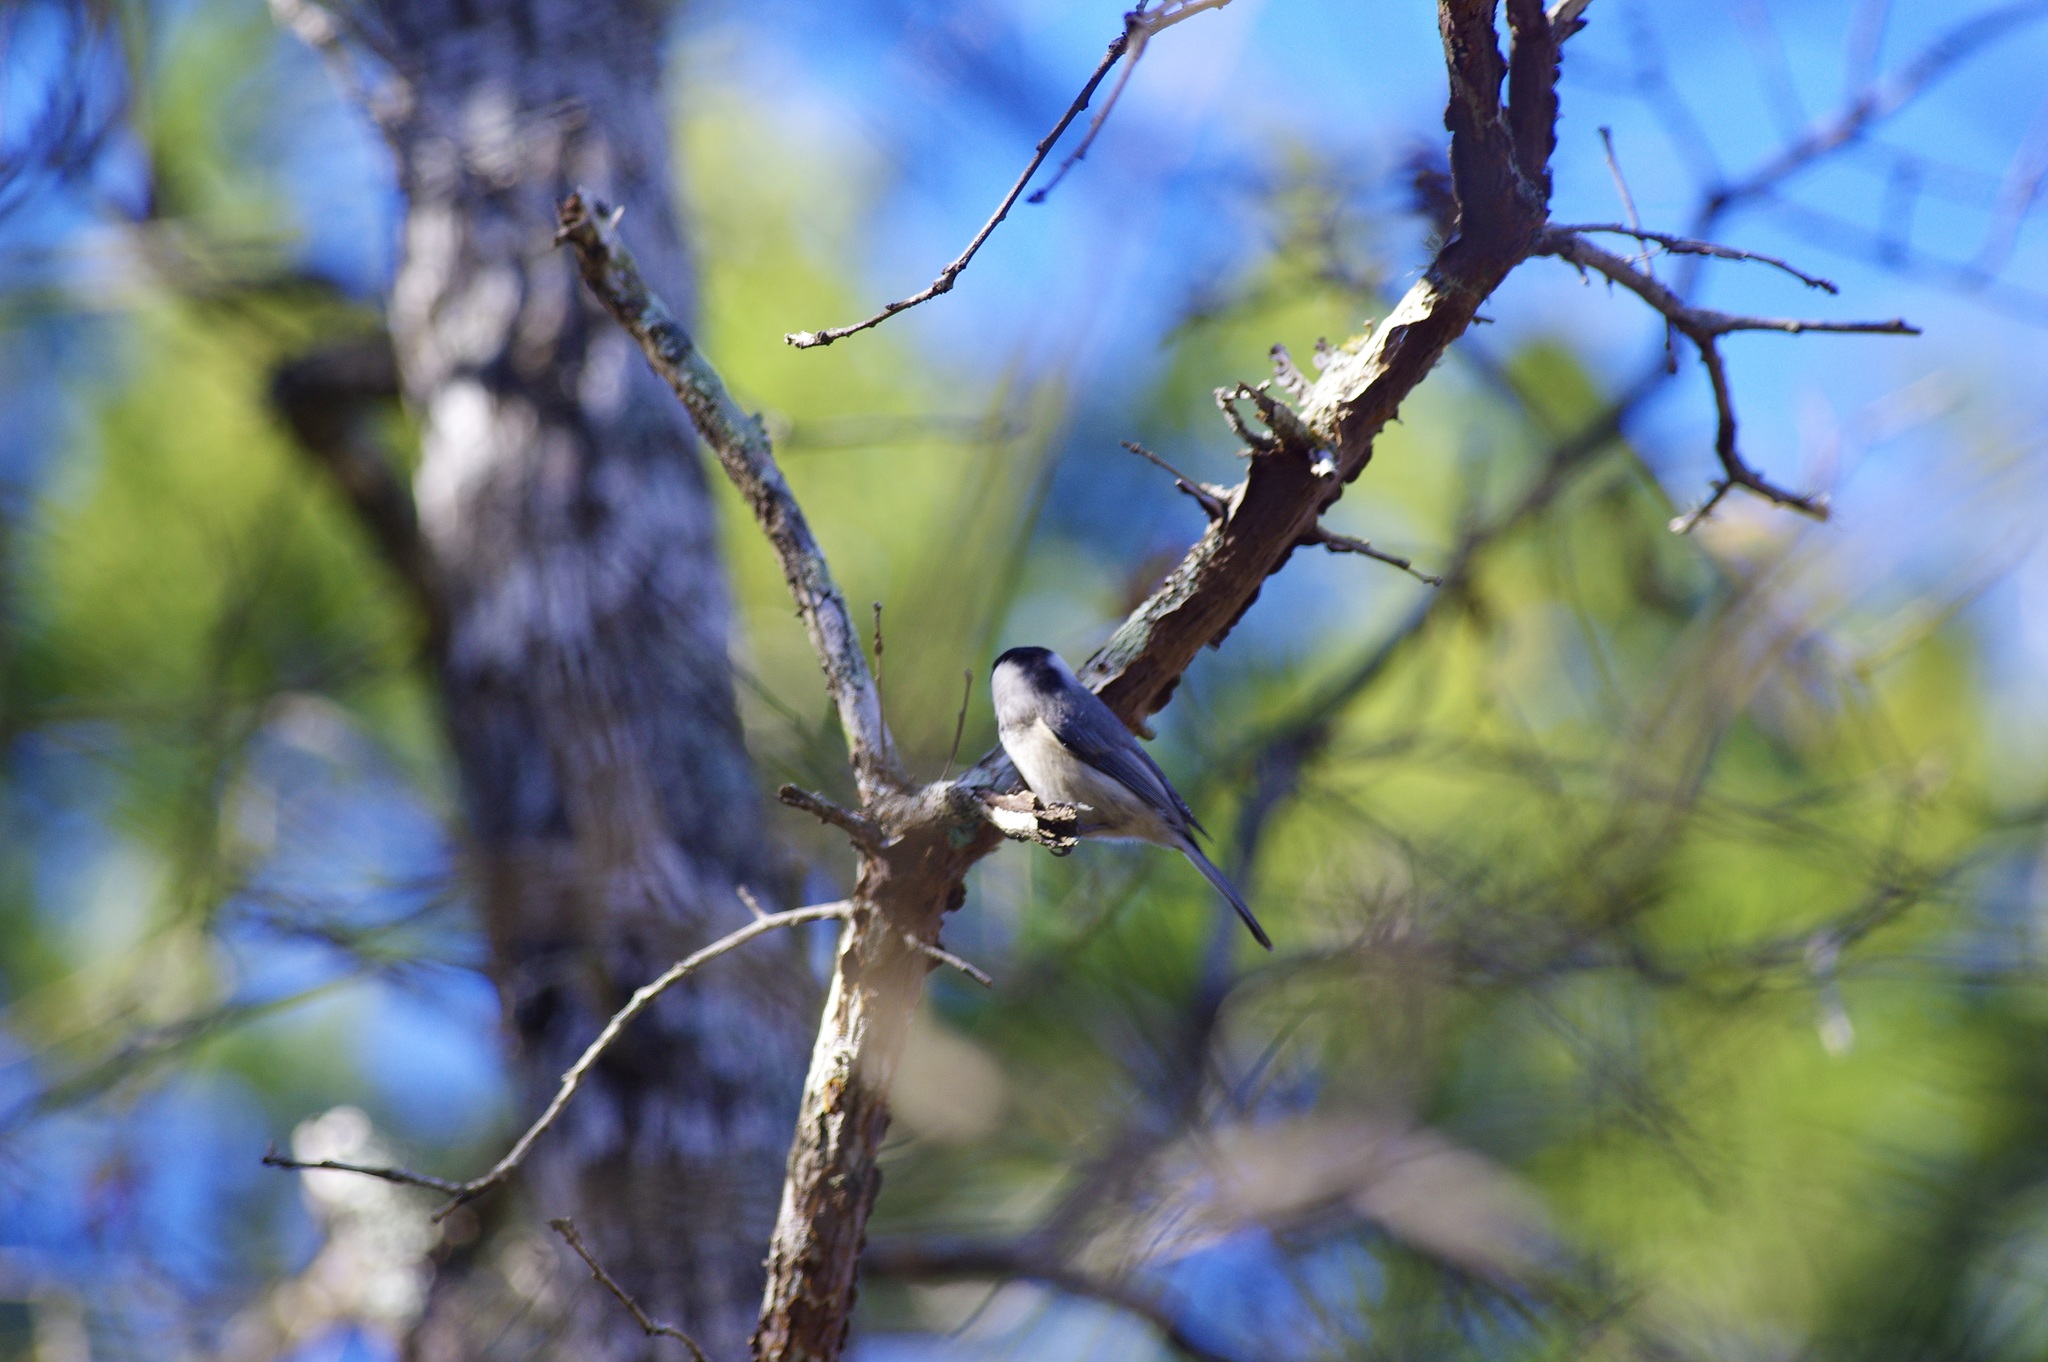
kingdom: Animalia
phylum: Chordata
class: Aves
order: Passeriformes
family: Paridae
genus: Poecile
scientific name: Poecile carolinensis
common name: Carolina chickadee
